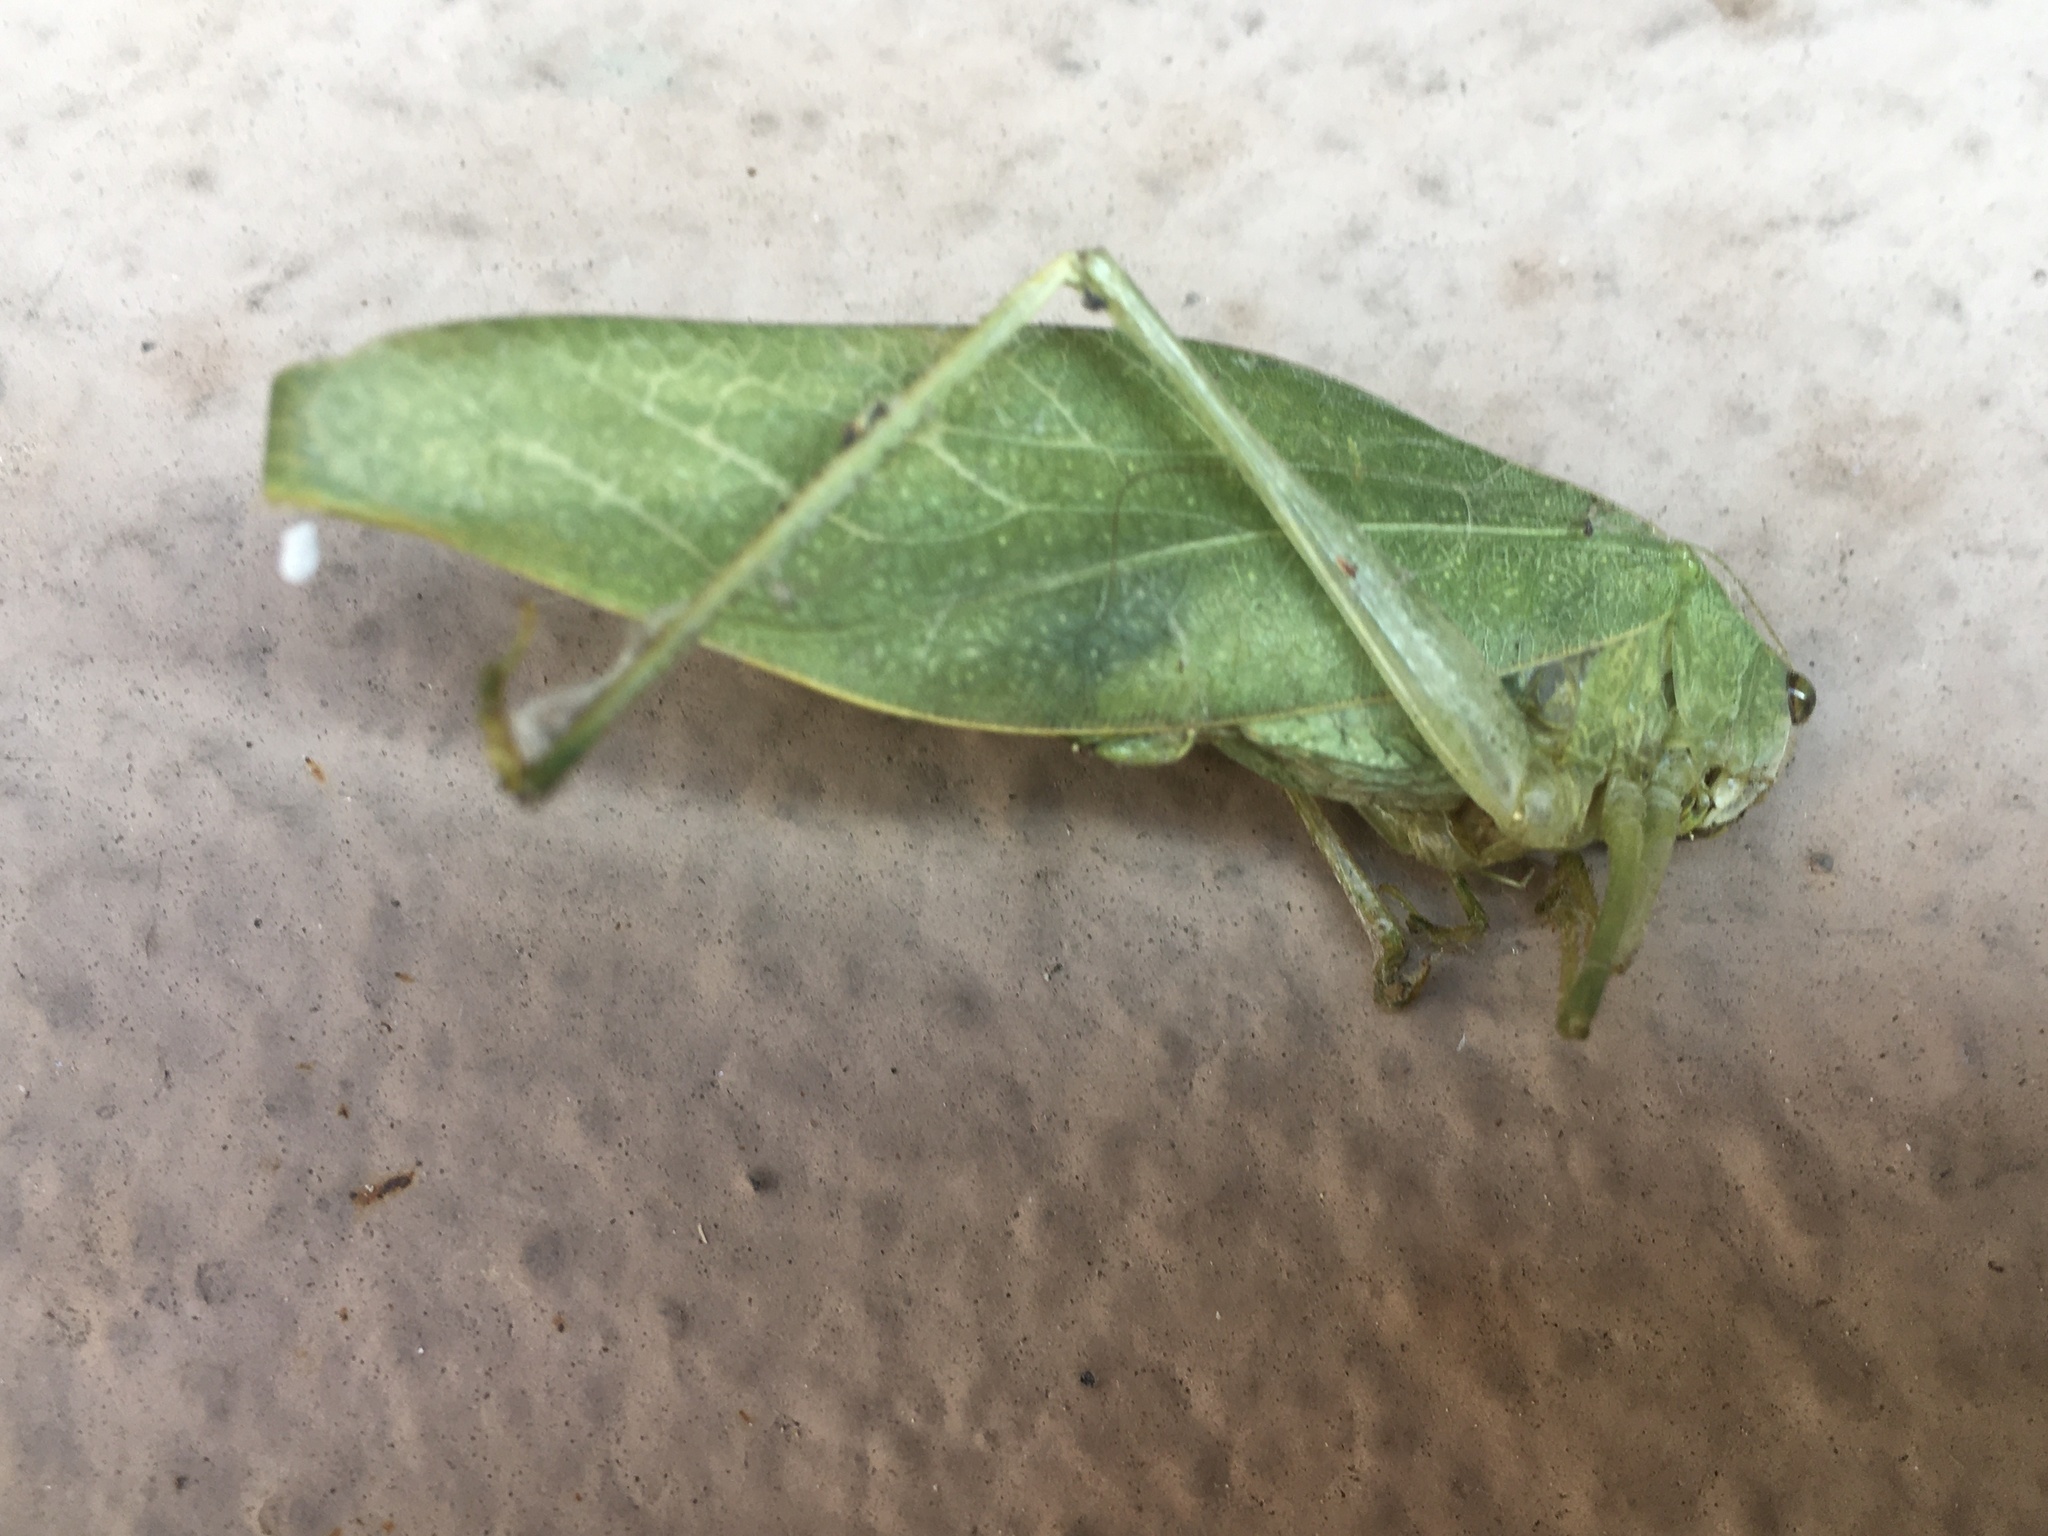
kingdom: Animalia
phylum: Arthropoda
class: Insecta
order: Orthoptera
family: Tettigoniidae
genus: Microcentrum
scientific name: Microcentrum
